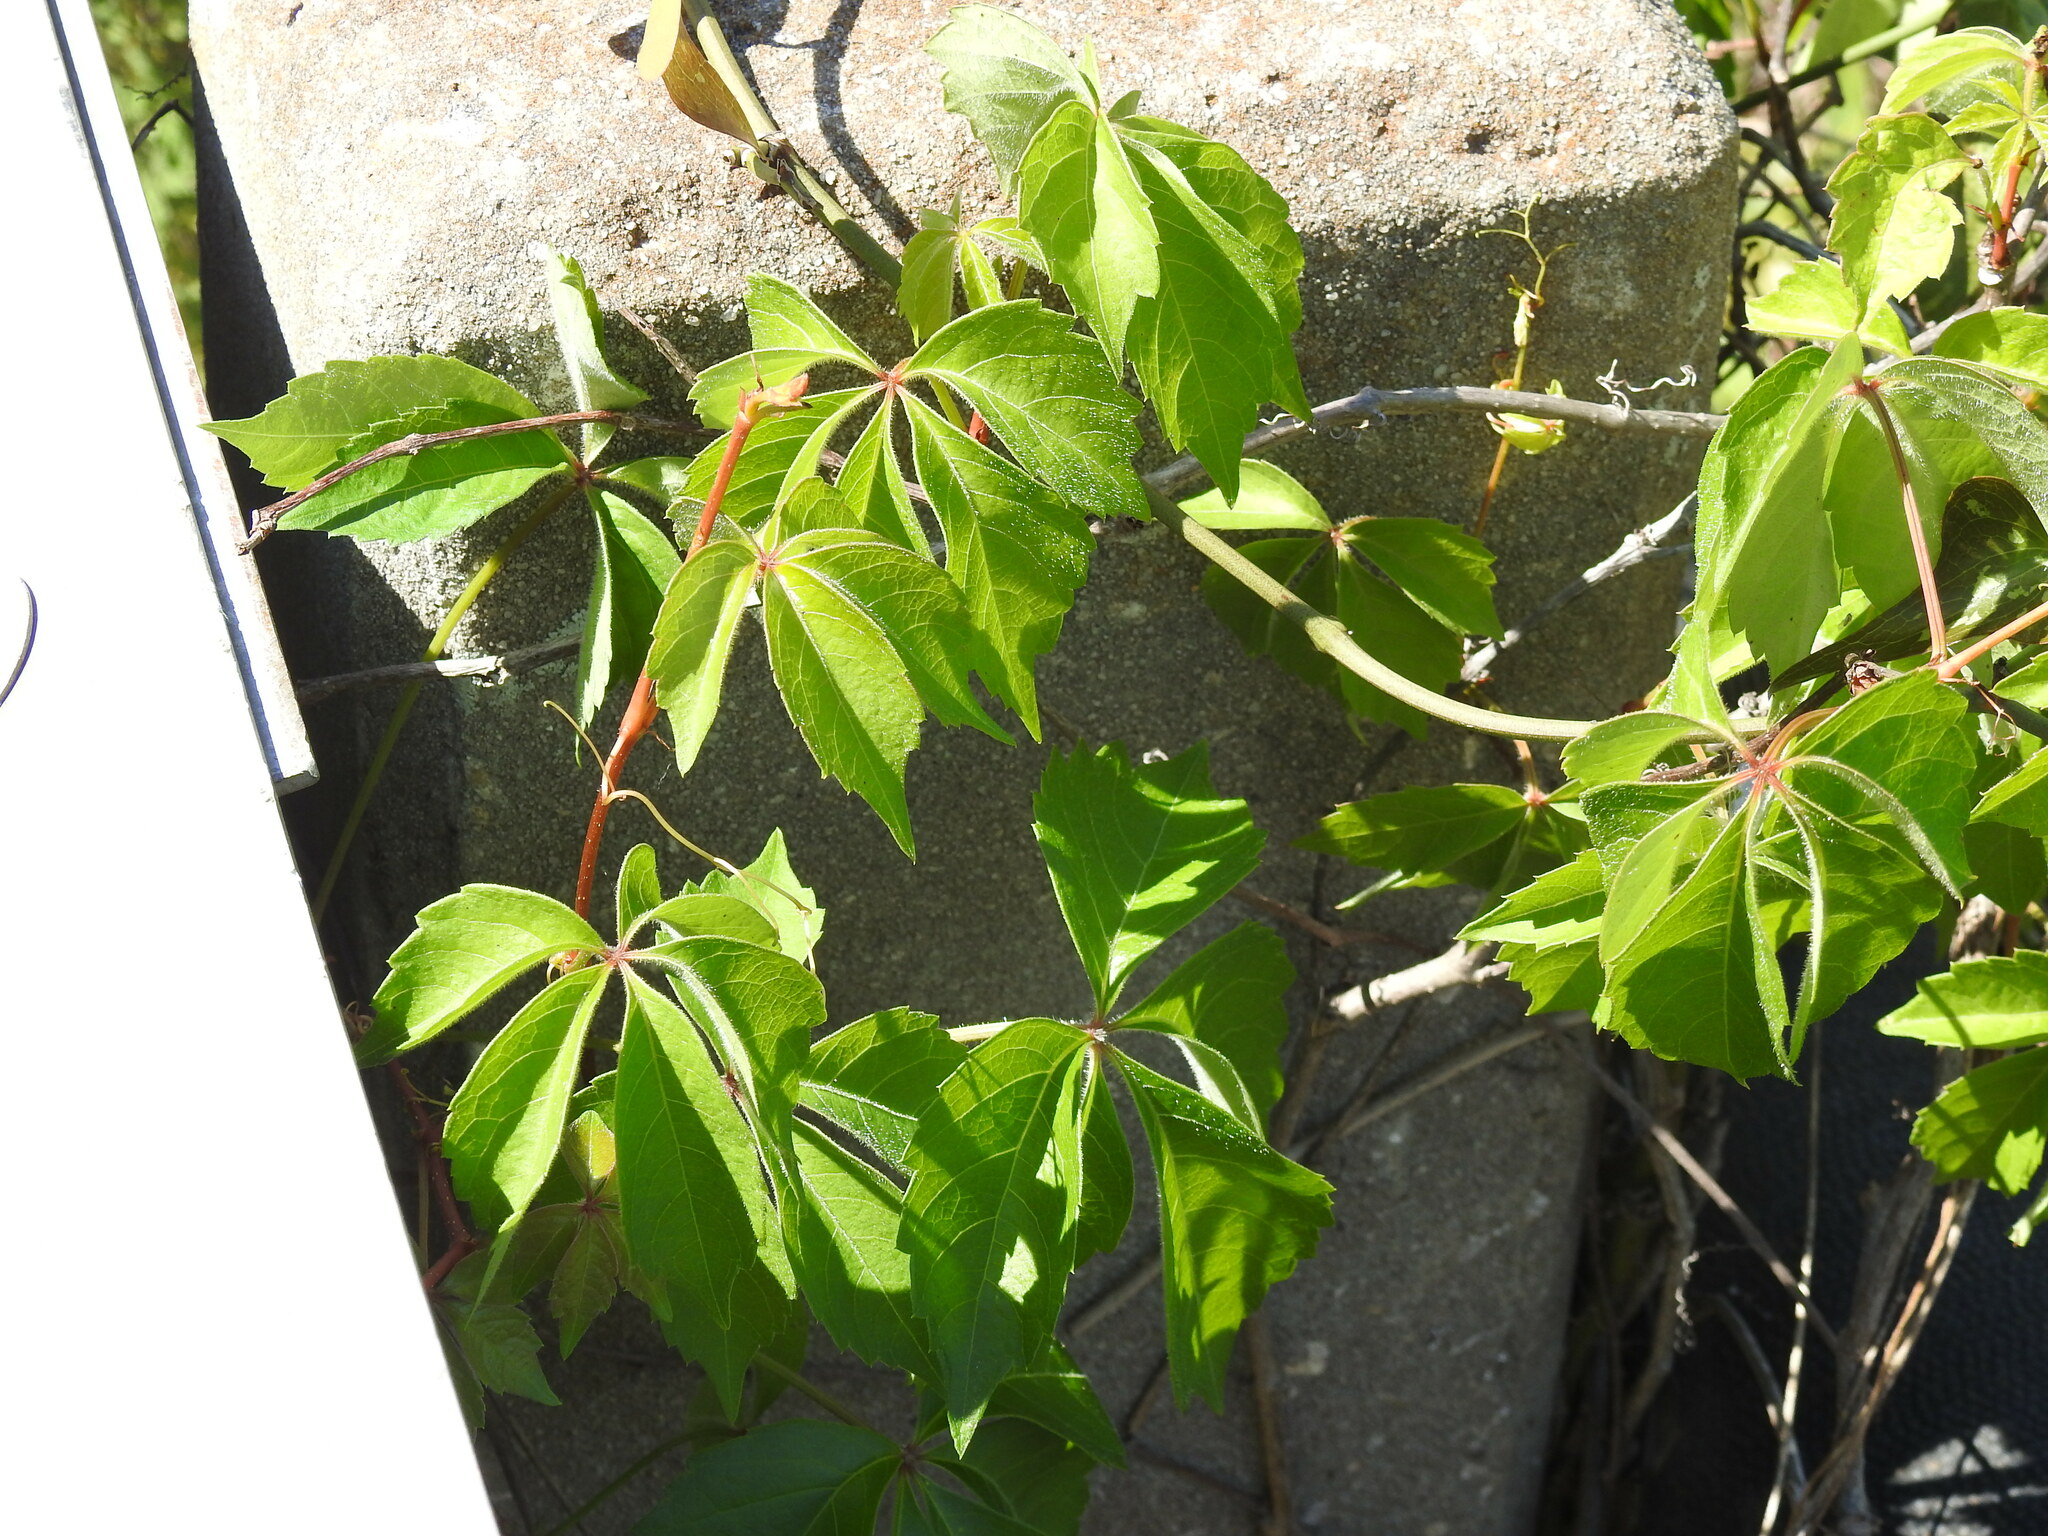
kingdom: Plantae
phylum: Tracheophyta
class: Magnoliopsida
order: Vitales
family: Vitaceae
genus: Parthenocissus
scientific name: Parthenocissus quinquefolia
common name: Virginia-creeper
